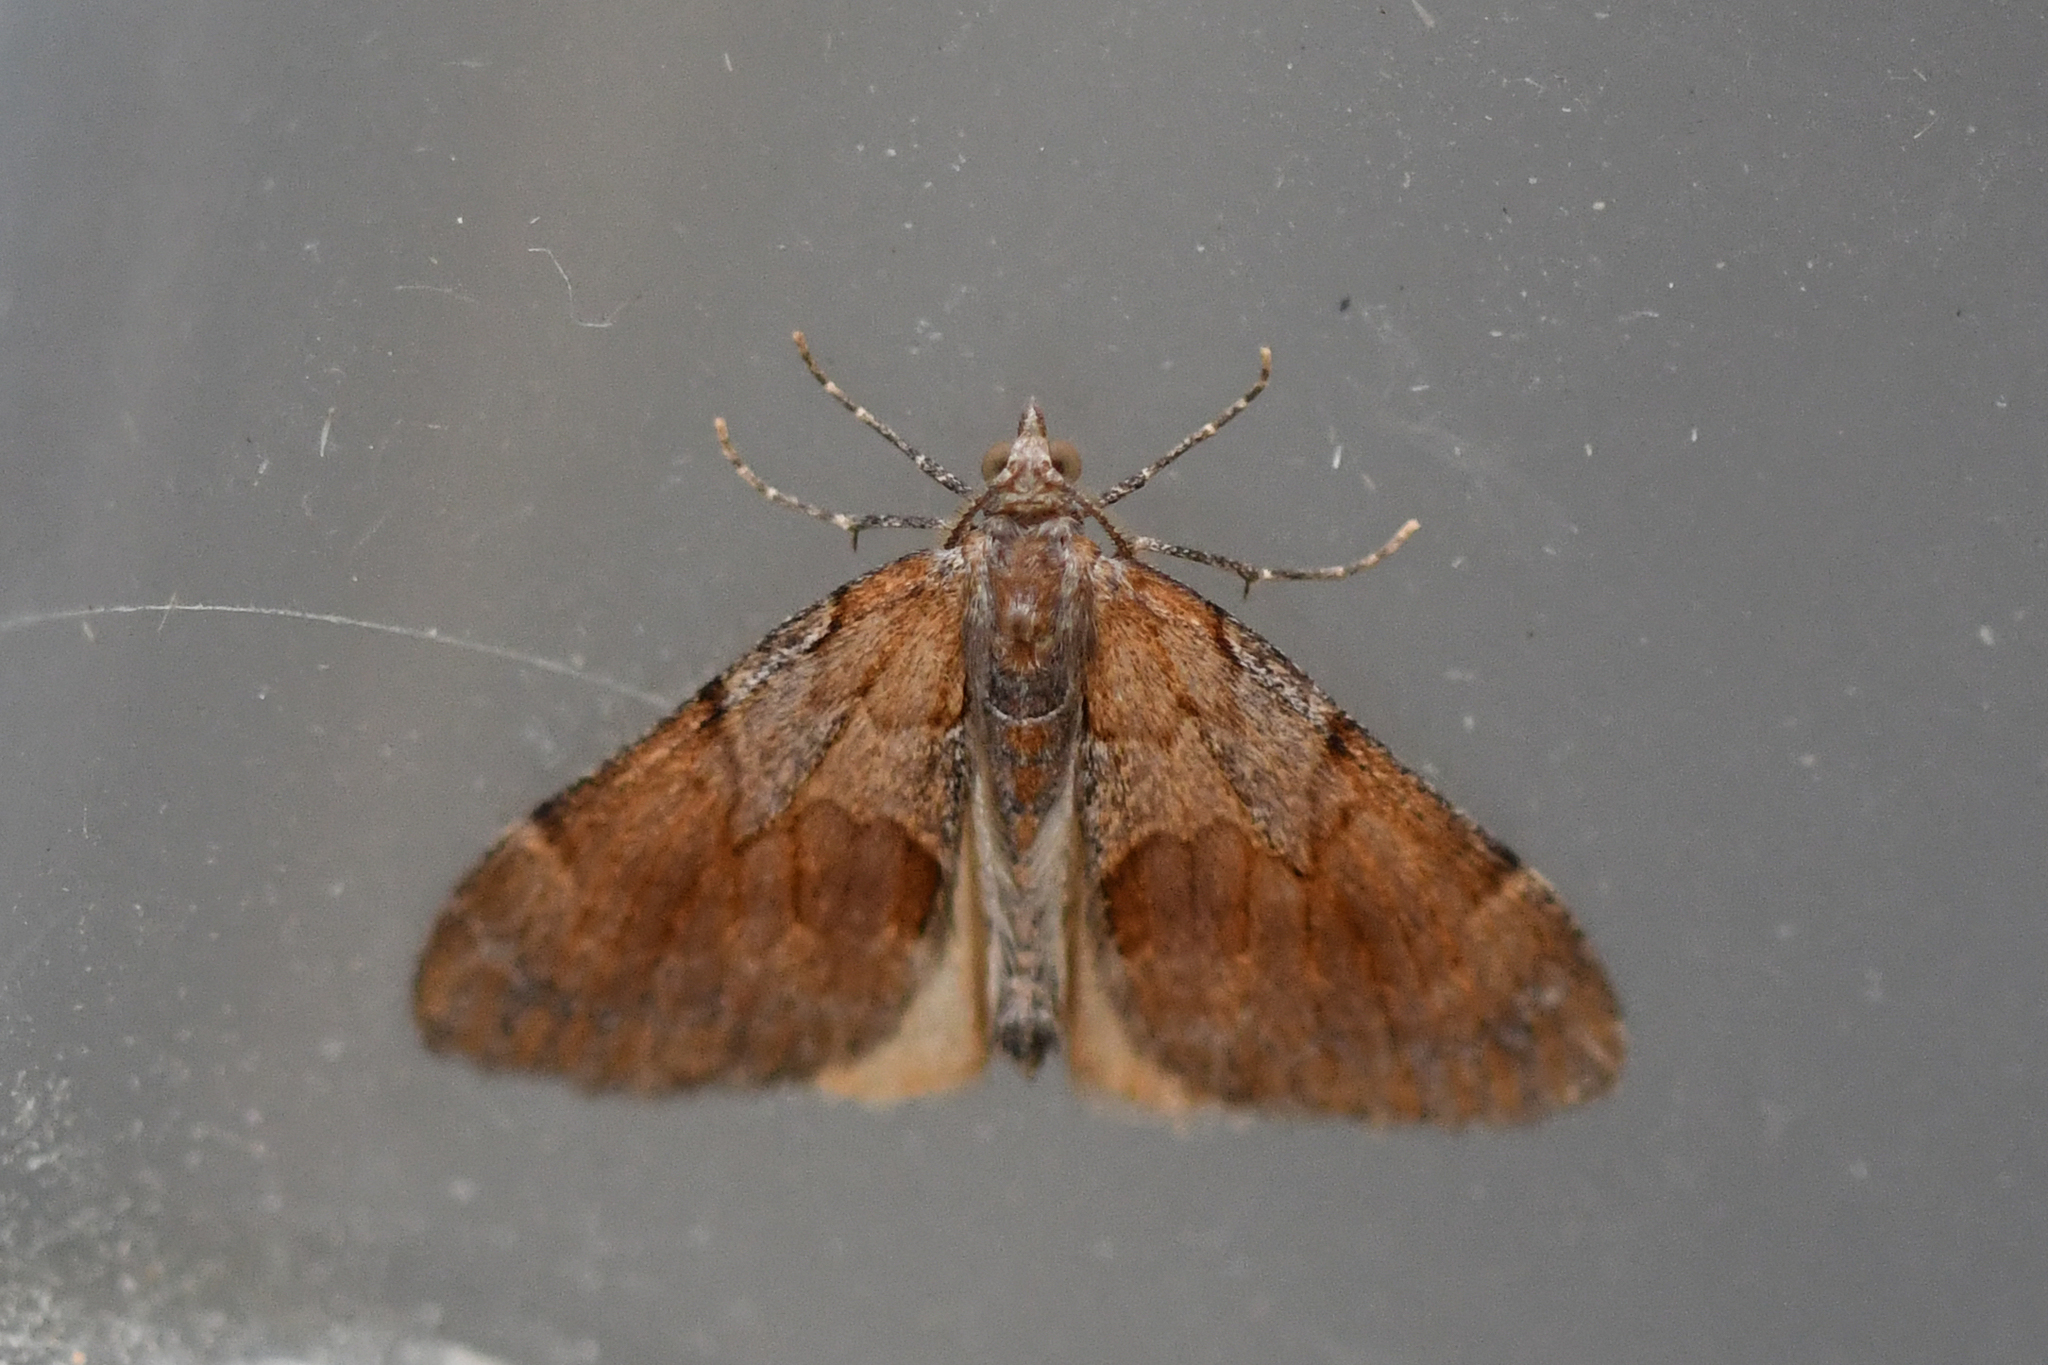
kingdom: Animalia
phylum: Arthropoda
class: Insecta
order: Lepidoptera
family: Geometridae
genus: Pennithera
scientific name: Pennithera firmata
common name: Pine carpet
